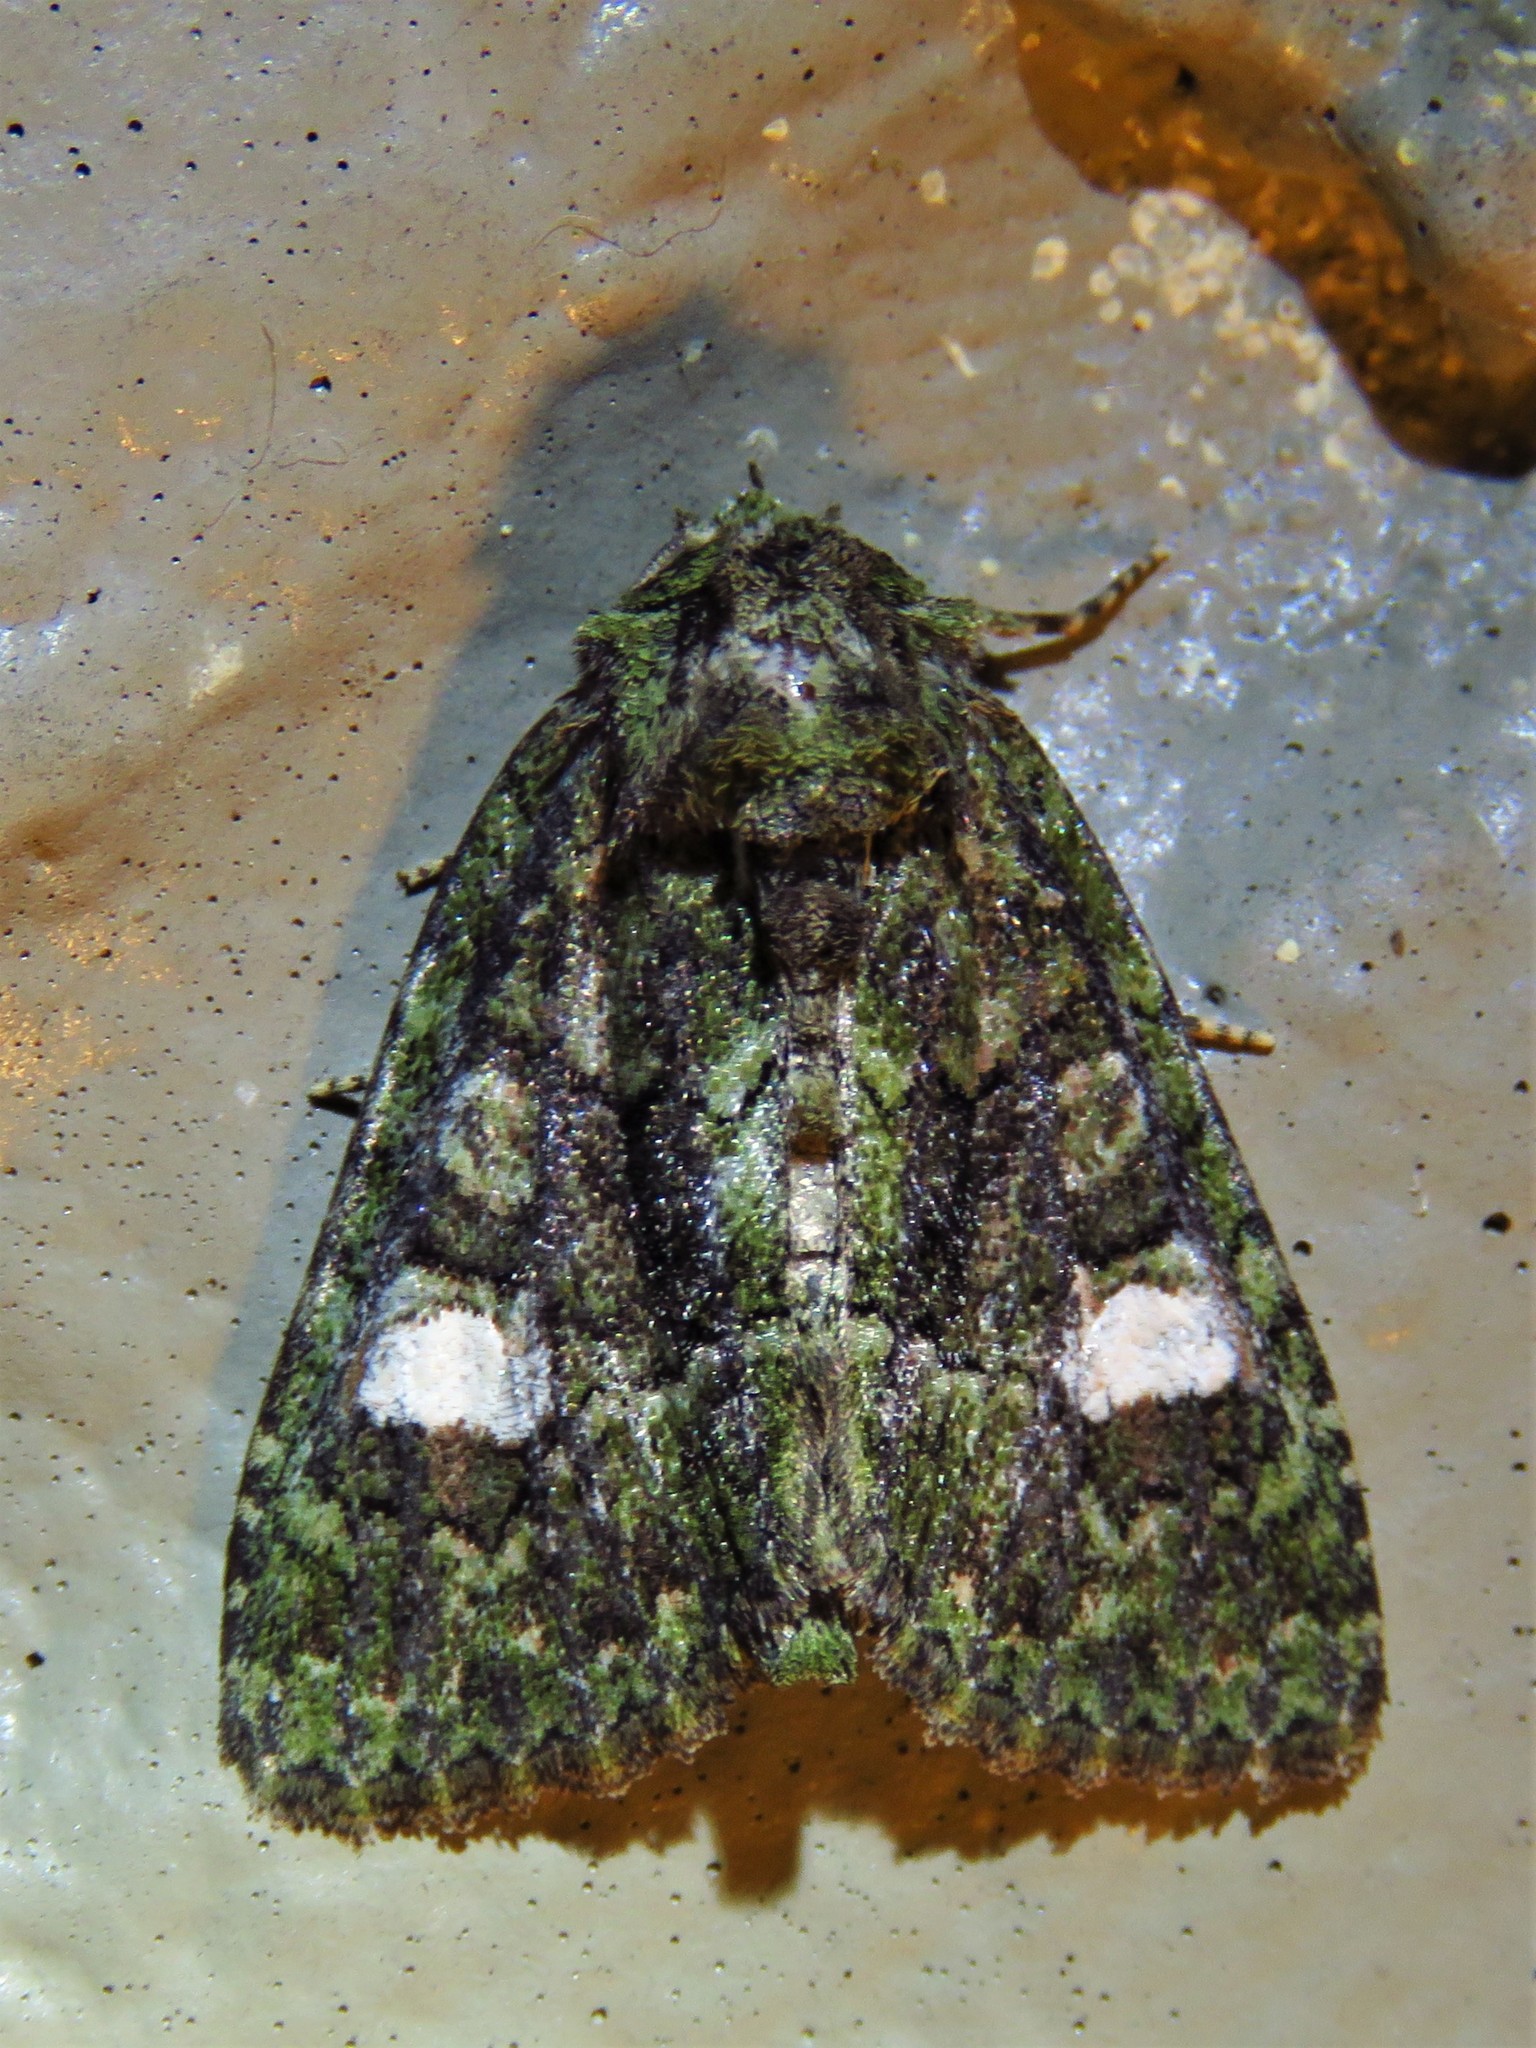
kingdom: Animalia
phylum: Arthropoda
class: Insecta
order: Lepidoptera
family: Noctuidae
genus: Phosphila
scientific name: Phosphila miselioides
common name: Spotted phosphila moth
